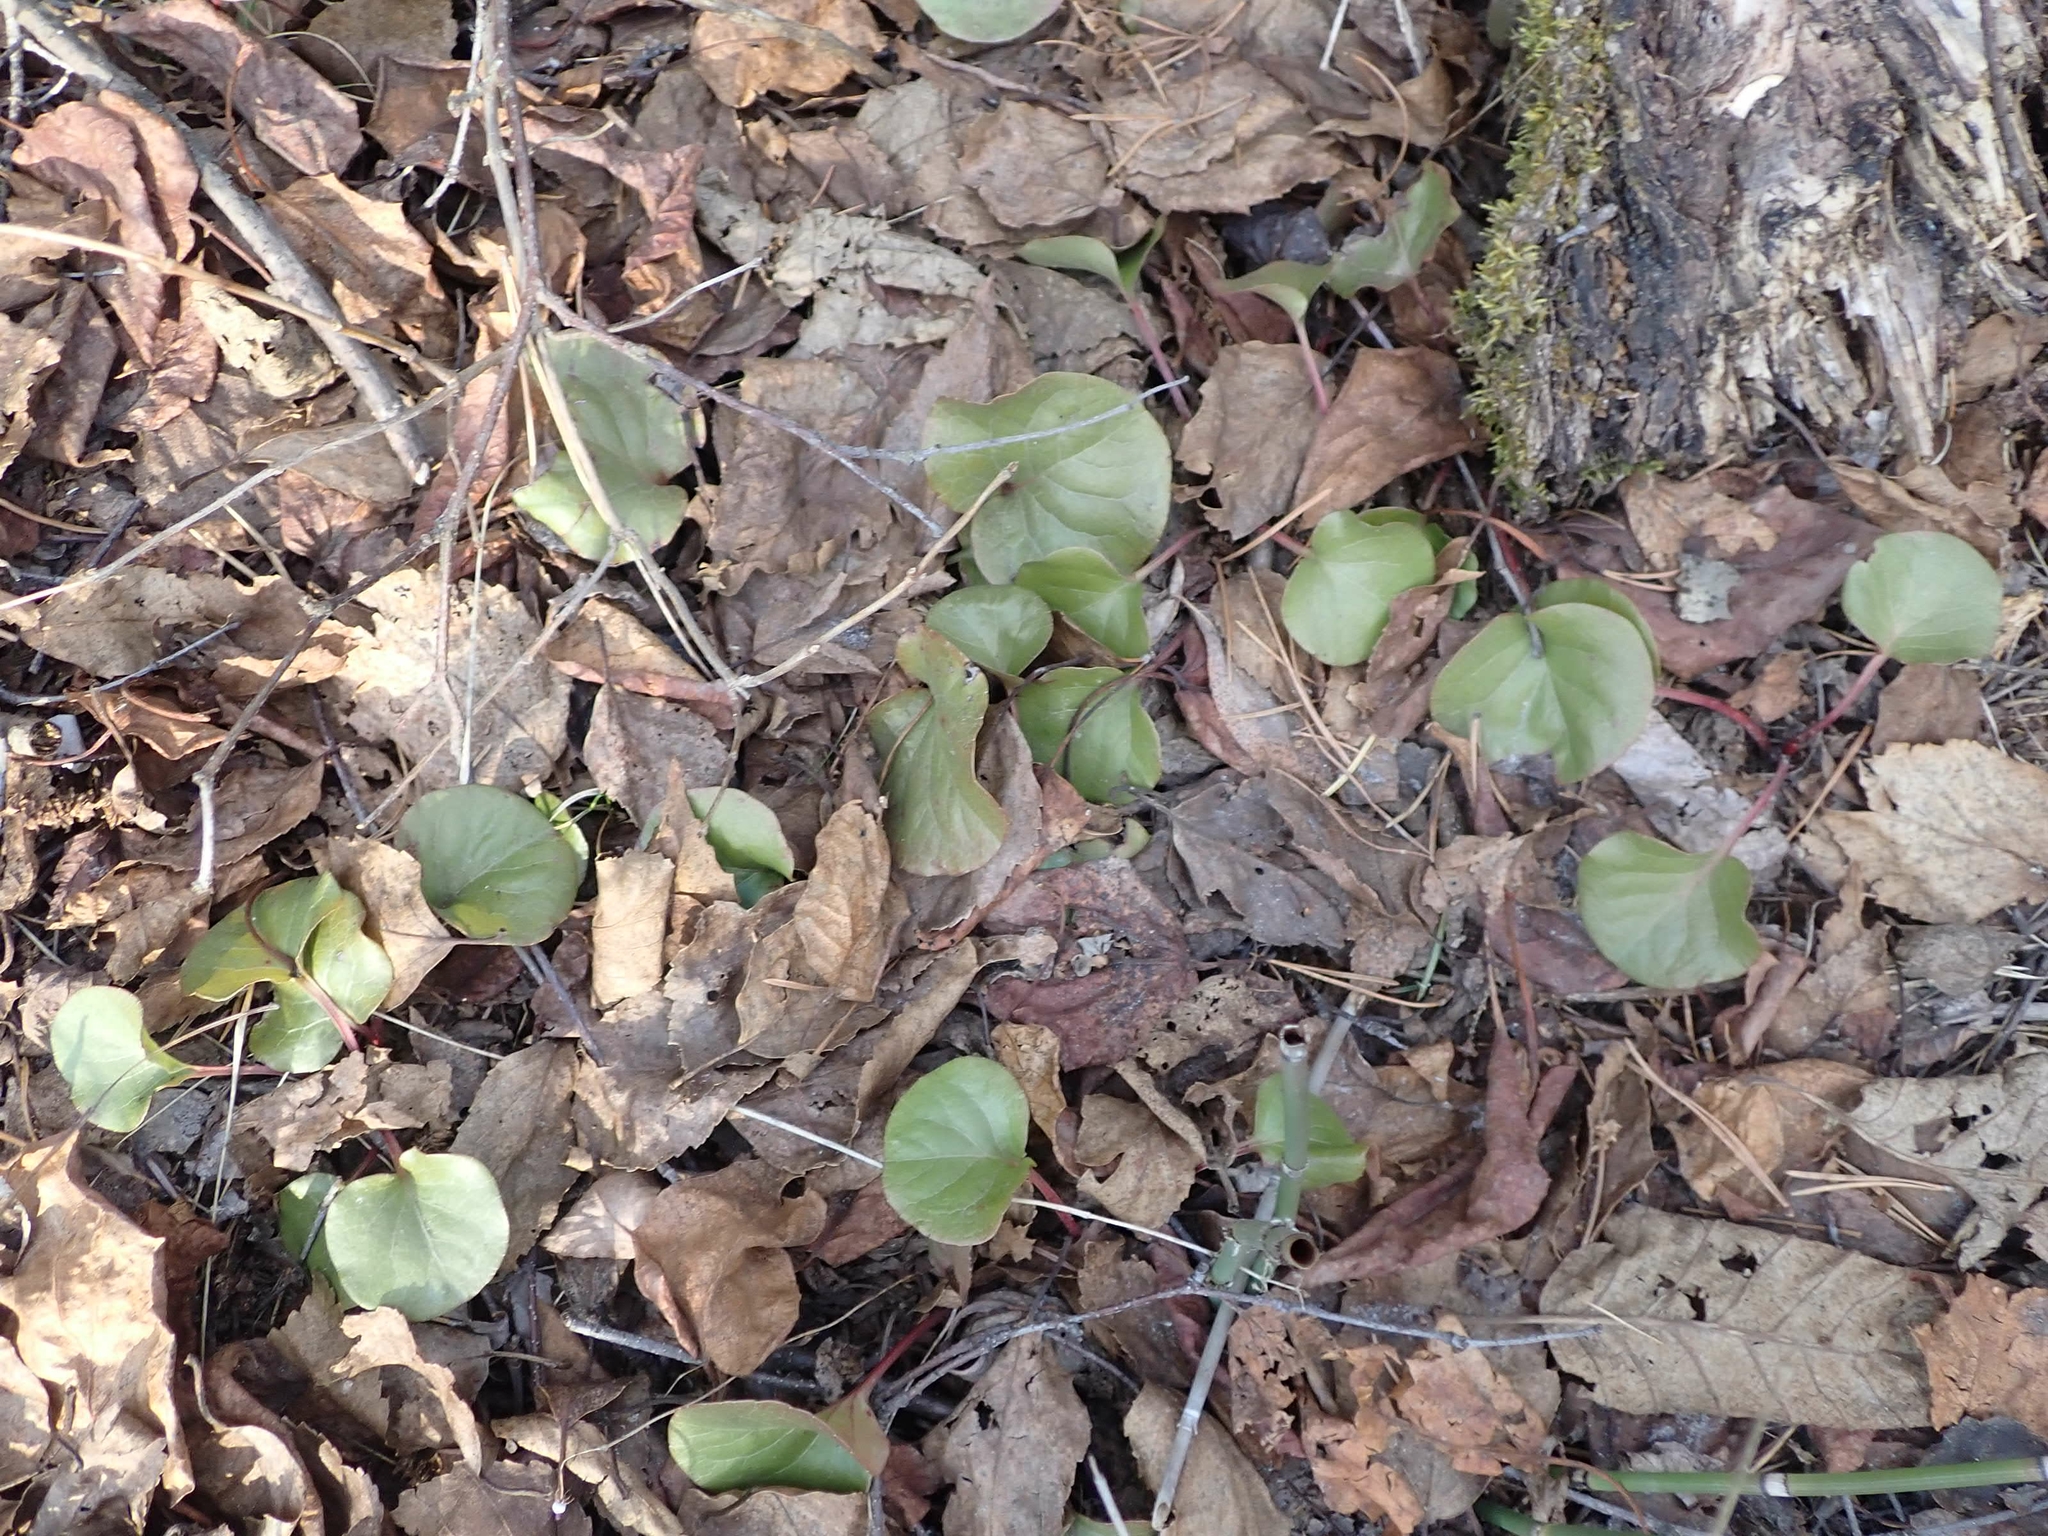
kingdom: Plantae
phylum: Tracheophyta
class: Magnoliopsida
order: Ericales
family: Ericaceae
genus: Pyrola
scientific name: Pyrola asarifolia
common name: Bog wintergreen
